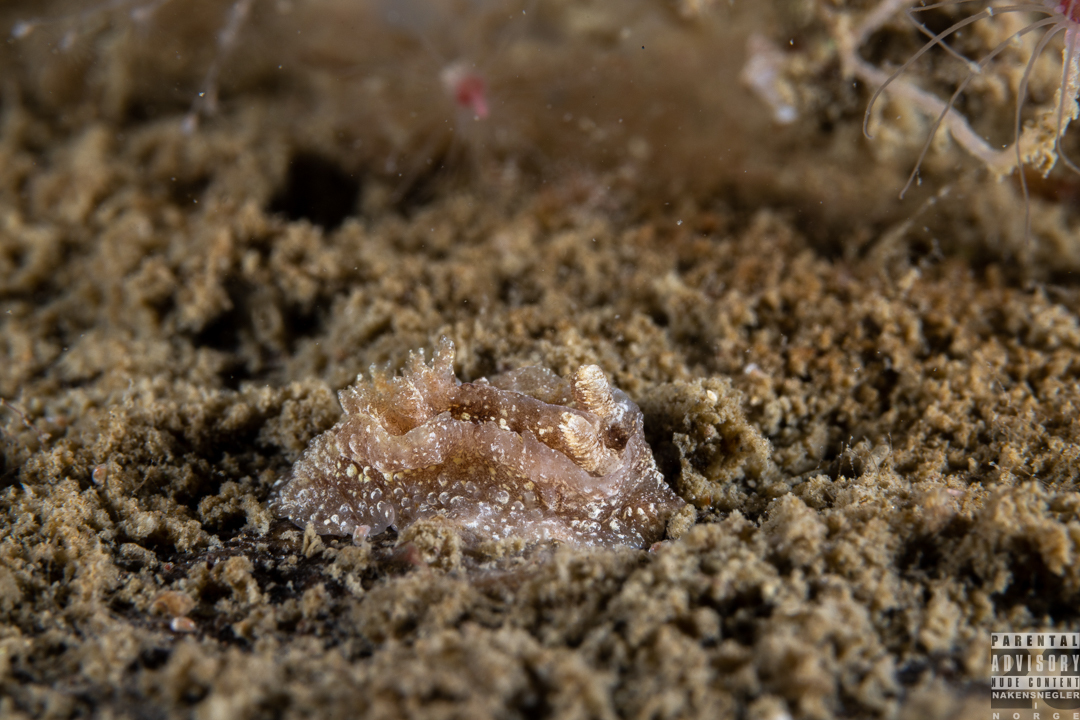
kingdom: Animalia
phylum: Mollusca
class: Gastropoda
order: Nudibranchia
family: Goniodorididae
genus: Pelagella
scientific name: Pelagella castanea
